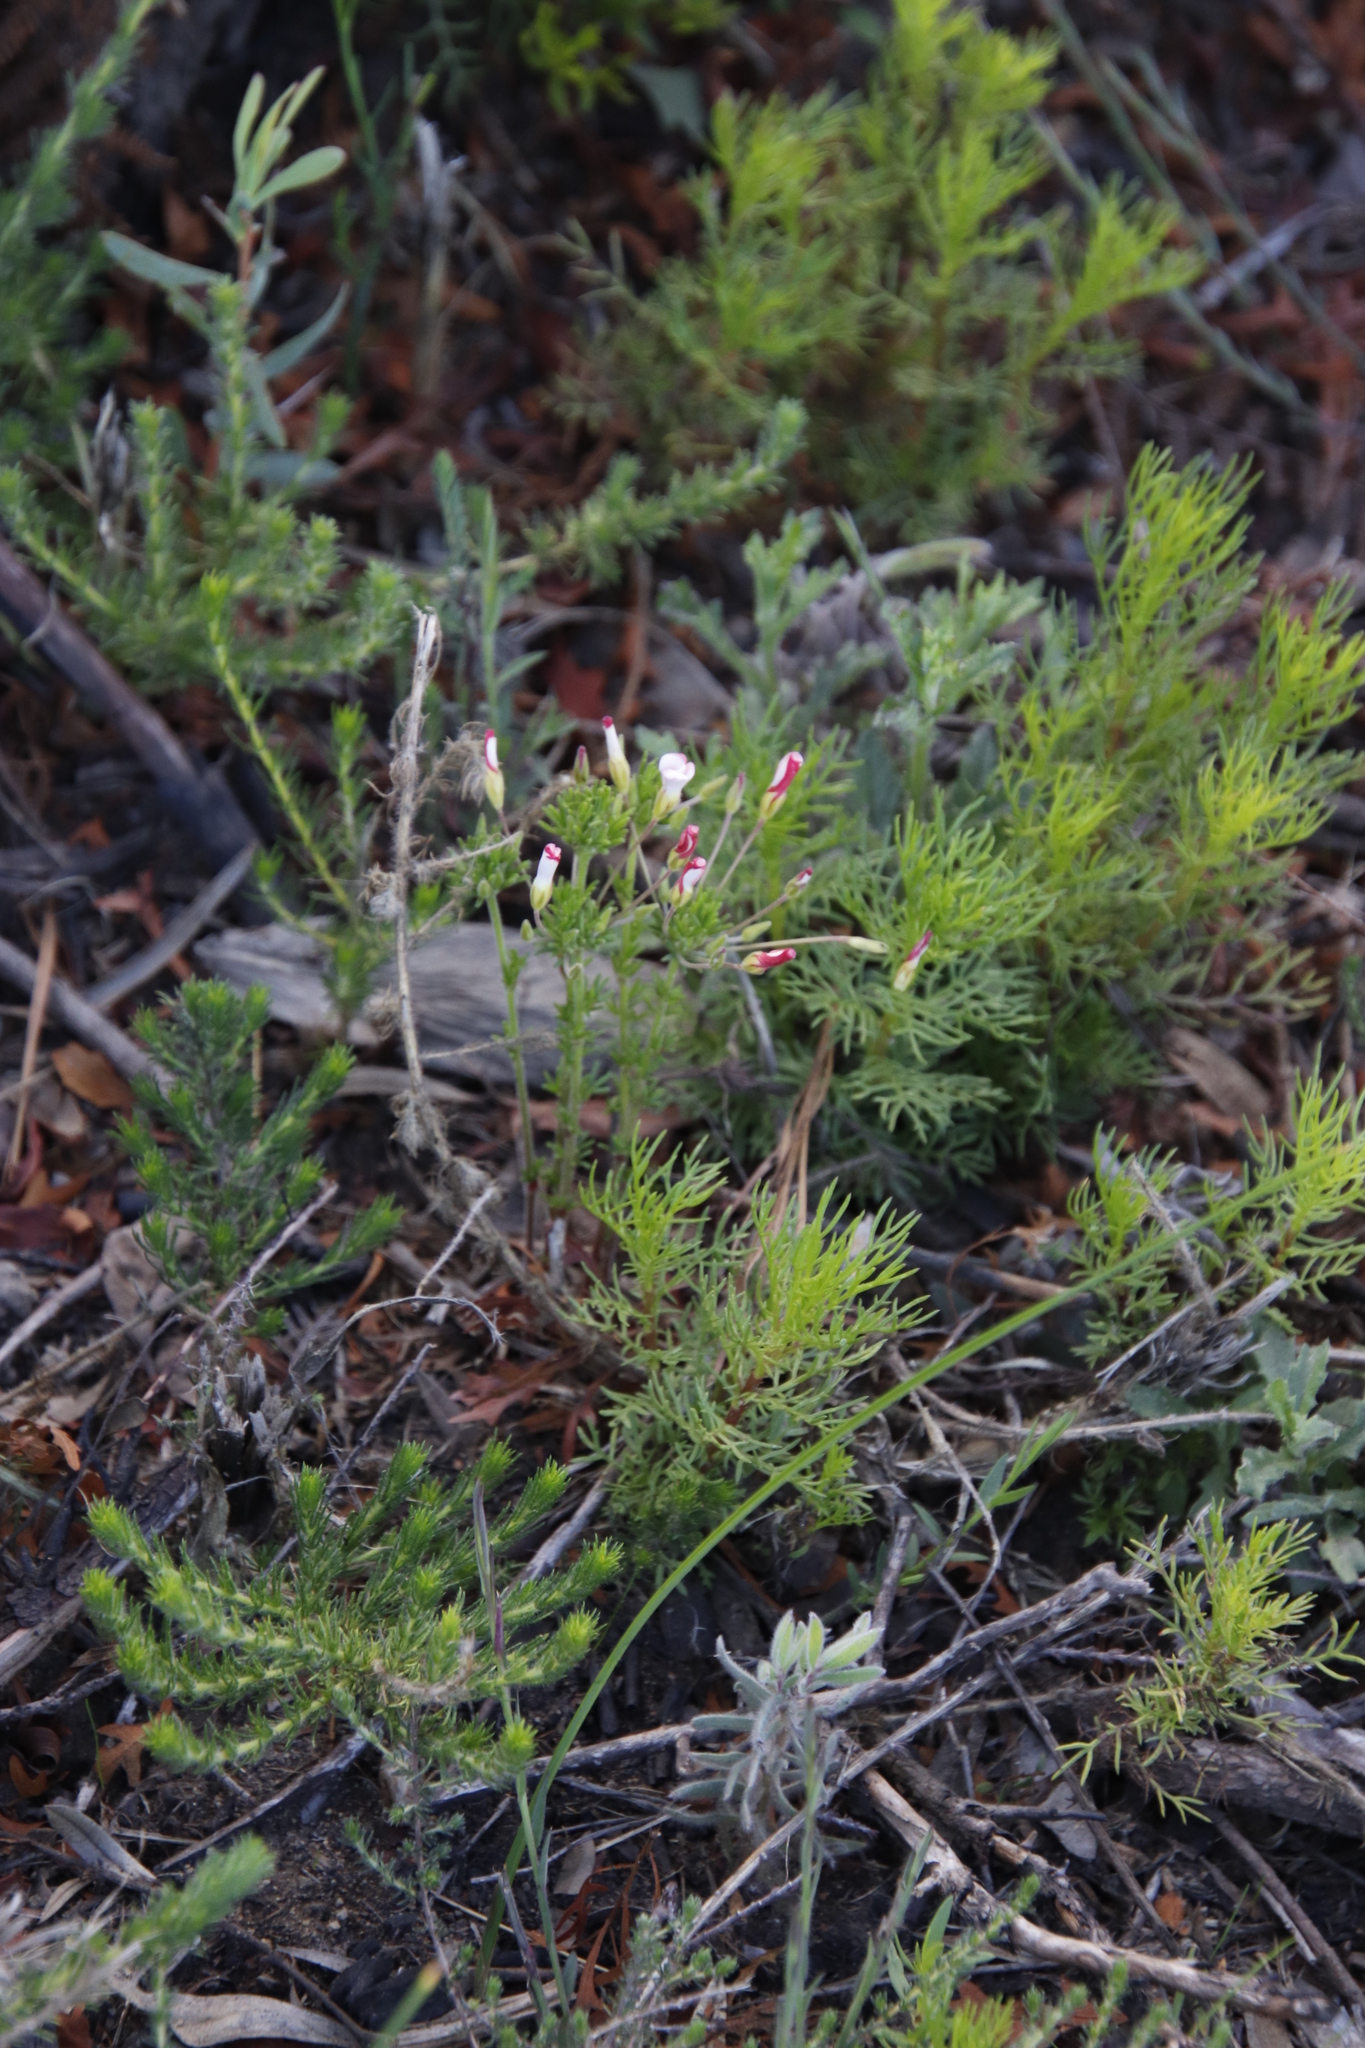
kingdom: Plantae
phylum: Tracheophyta
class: Magnoliopsida
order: Oxalidales
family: Oxalidaceae
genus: Oxalis
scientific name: Oxalis tenuifolia
